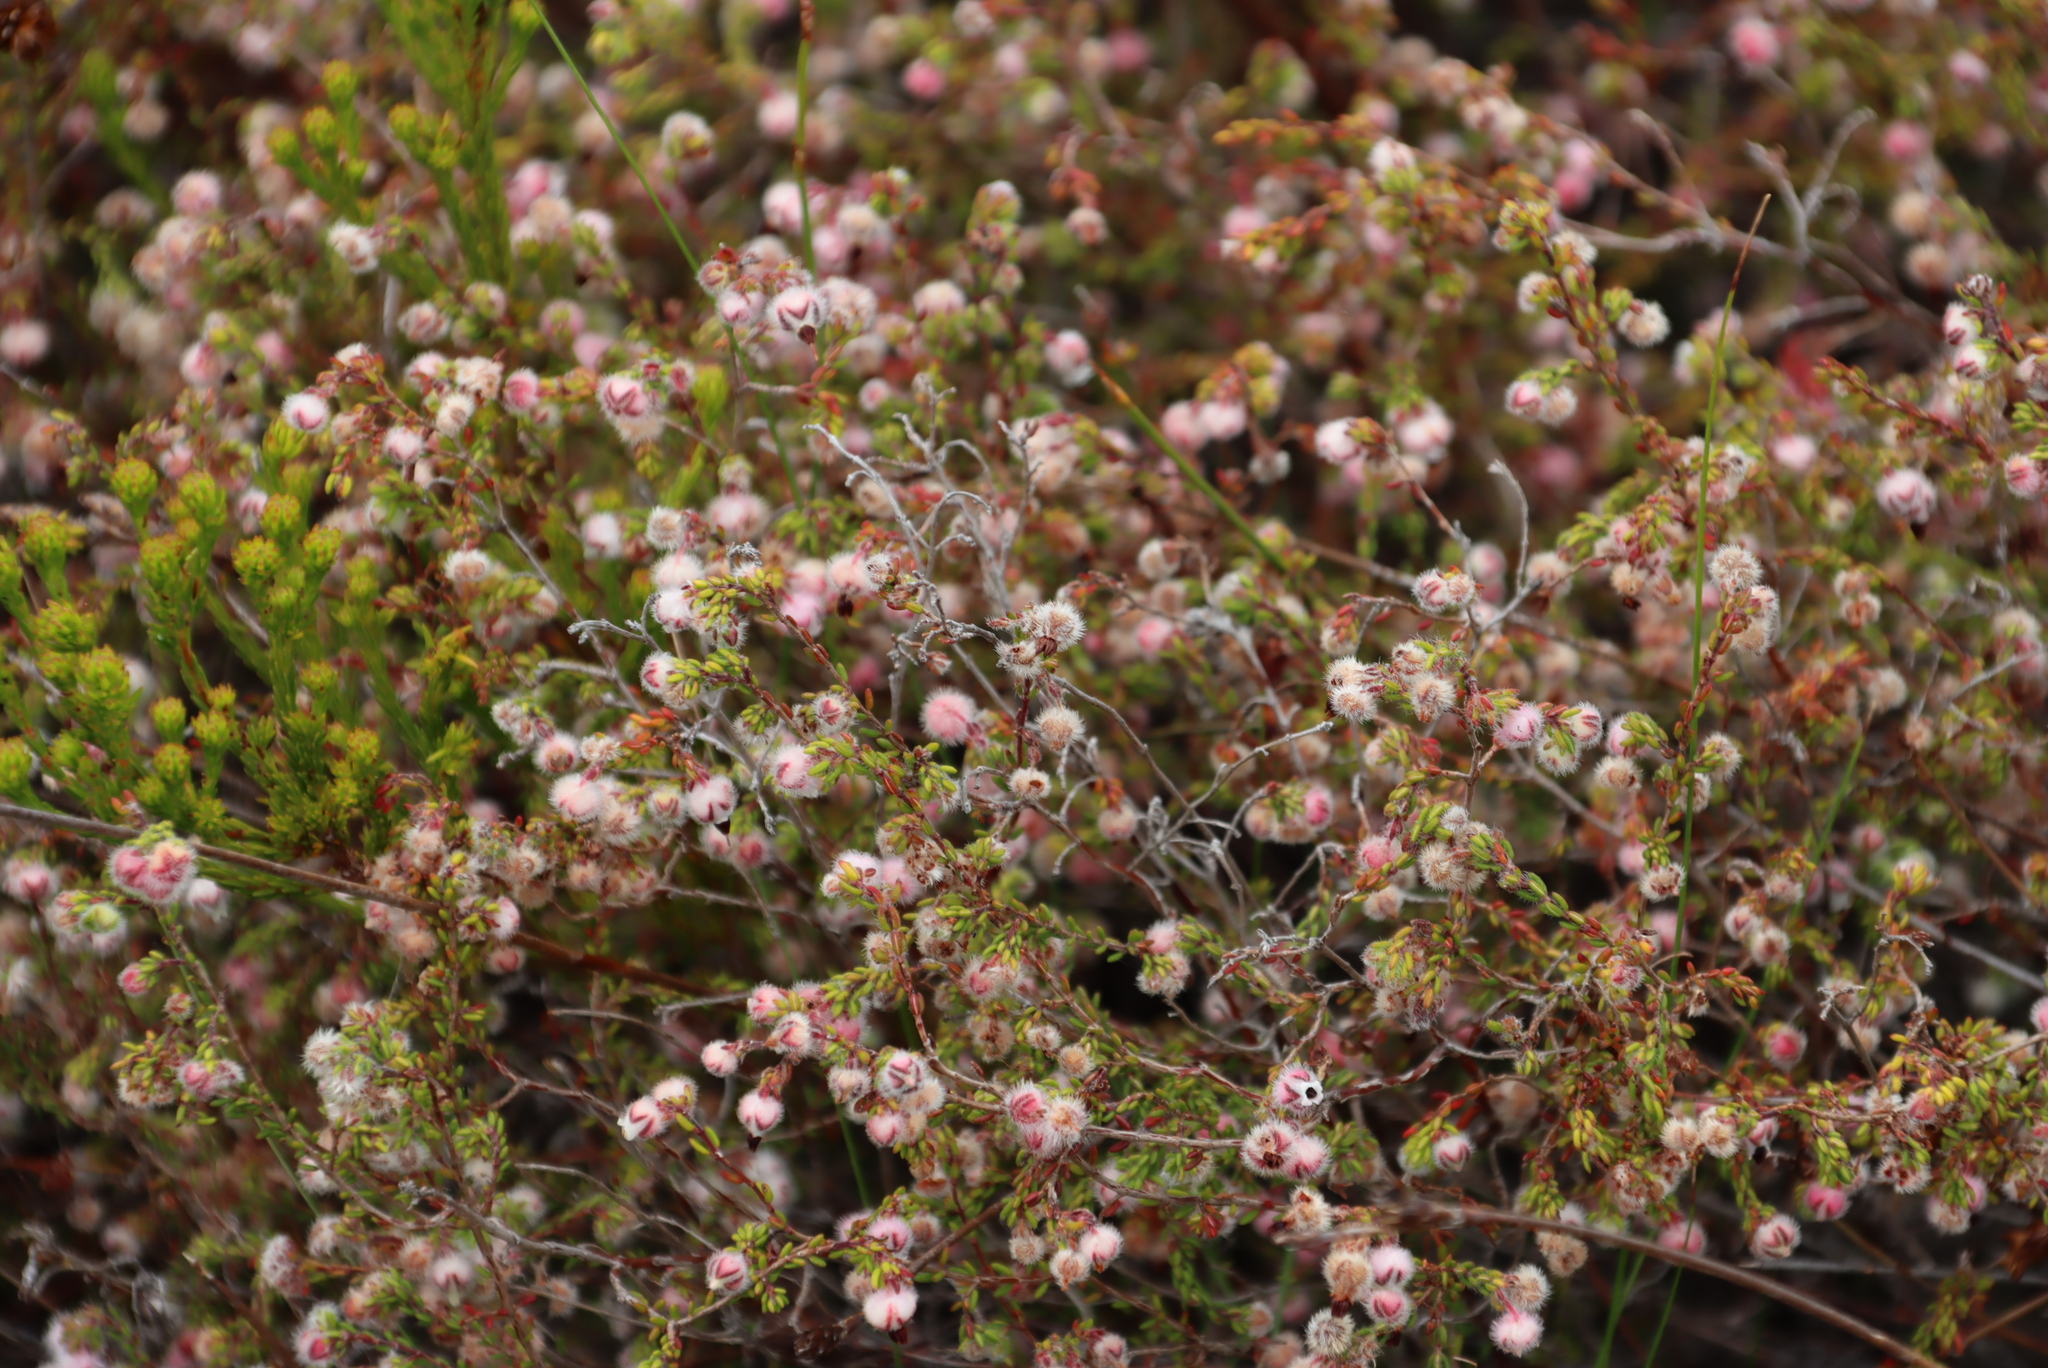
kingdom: Plantae
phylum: Tracheophyta
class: Magnoliopsida
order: Ericales
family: Ericaceae
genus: Erica
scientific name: Erica bruniades
